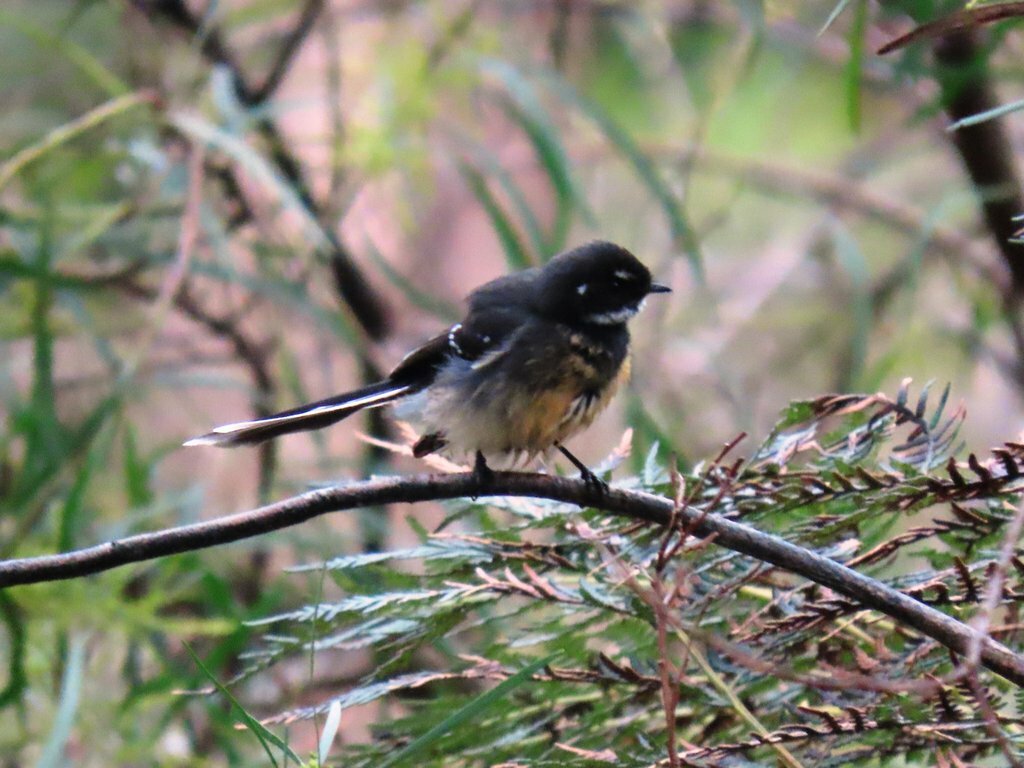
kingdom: Animalia
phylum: Chordata
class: Aves
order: Passeriformes
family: Rhipiduridae
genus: Rhipidura
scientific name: Rhipidura albiscapa
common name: Grey fantail
